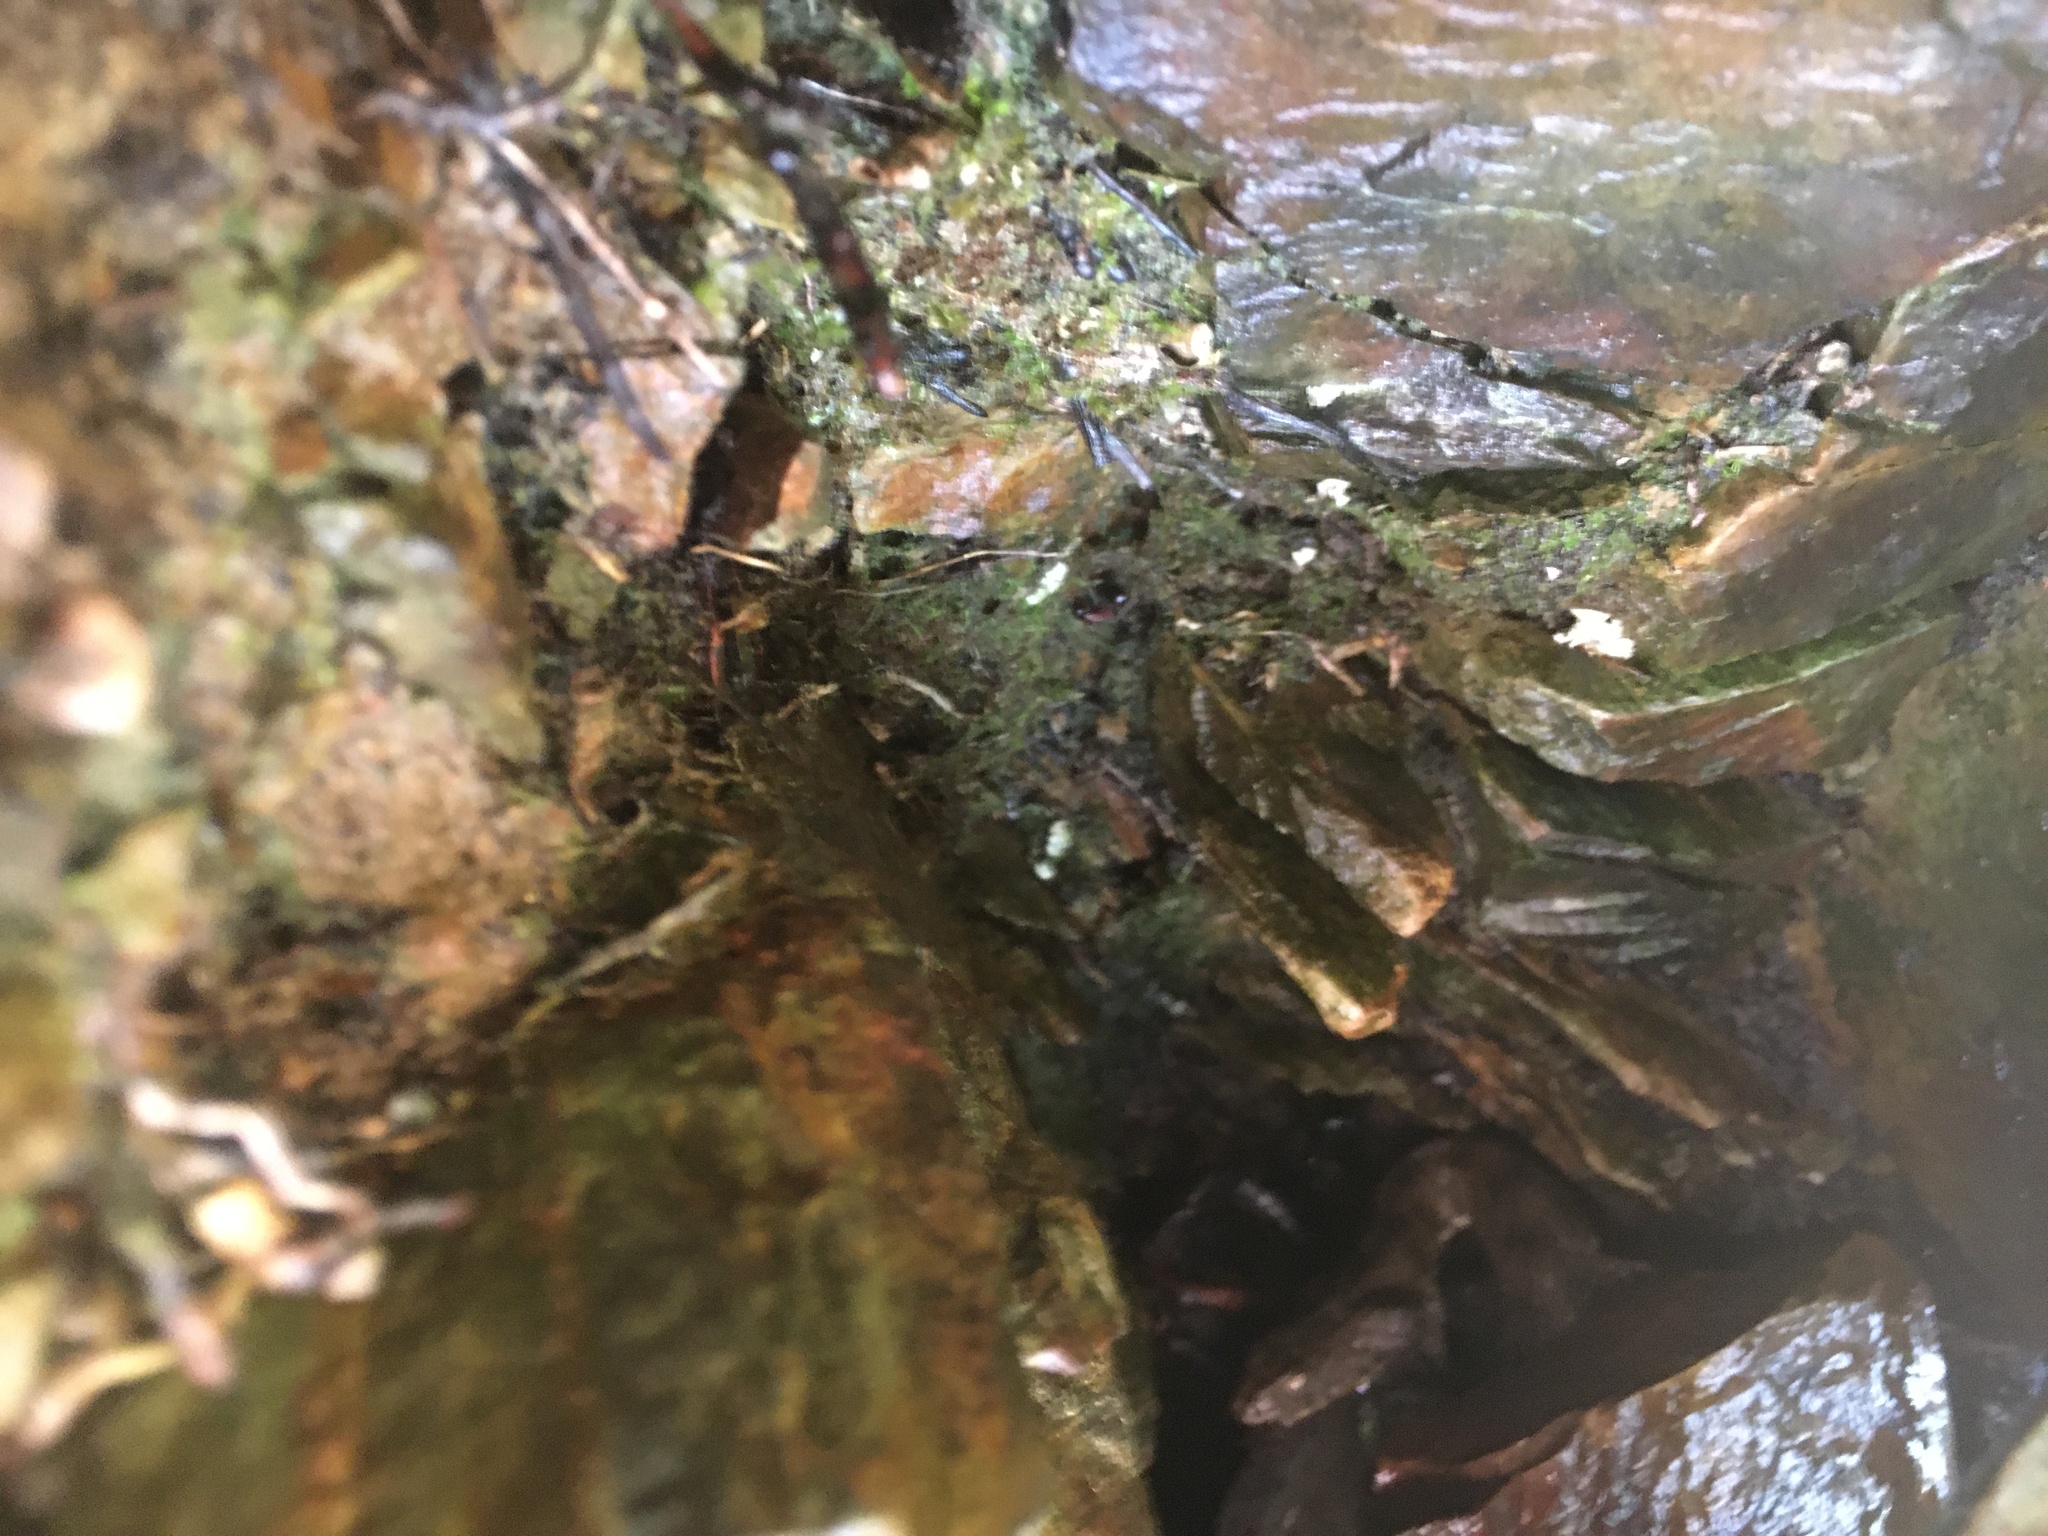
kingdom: Animalia
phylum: Chordata
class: Squamata
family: Colubridae
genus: Natrix
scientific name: Natrix tessellata
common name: Dice snake
